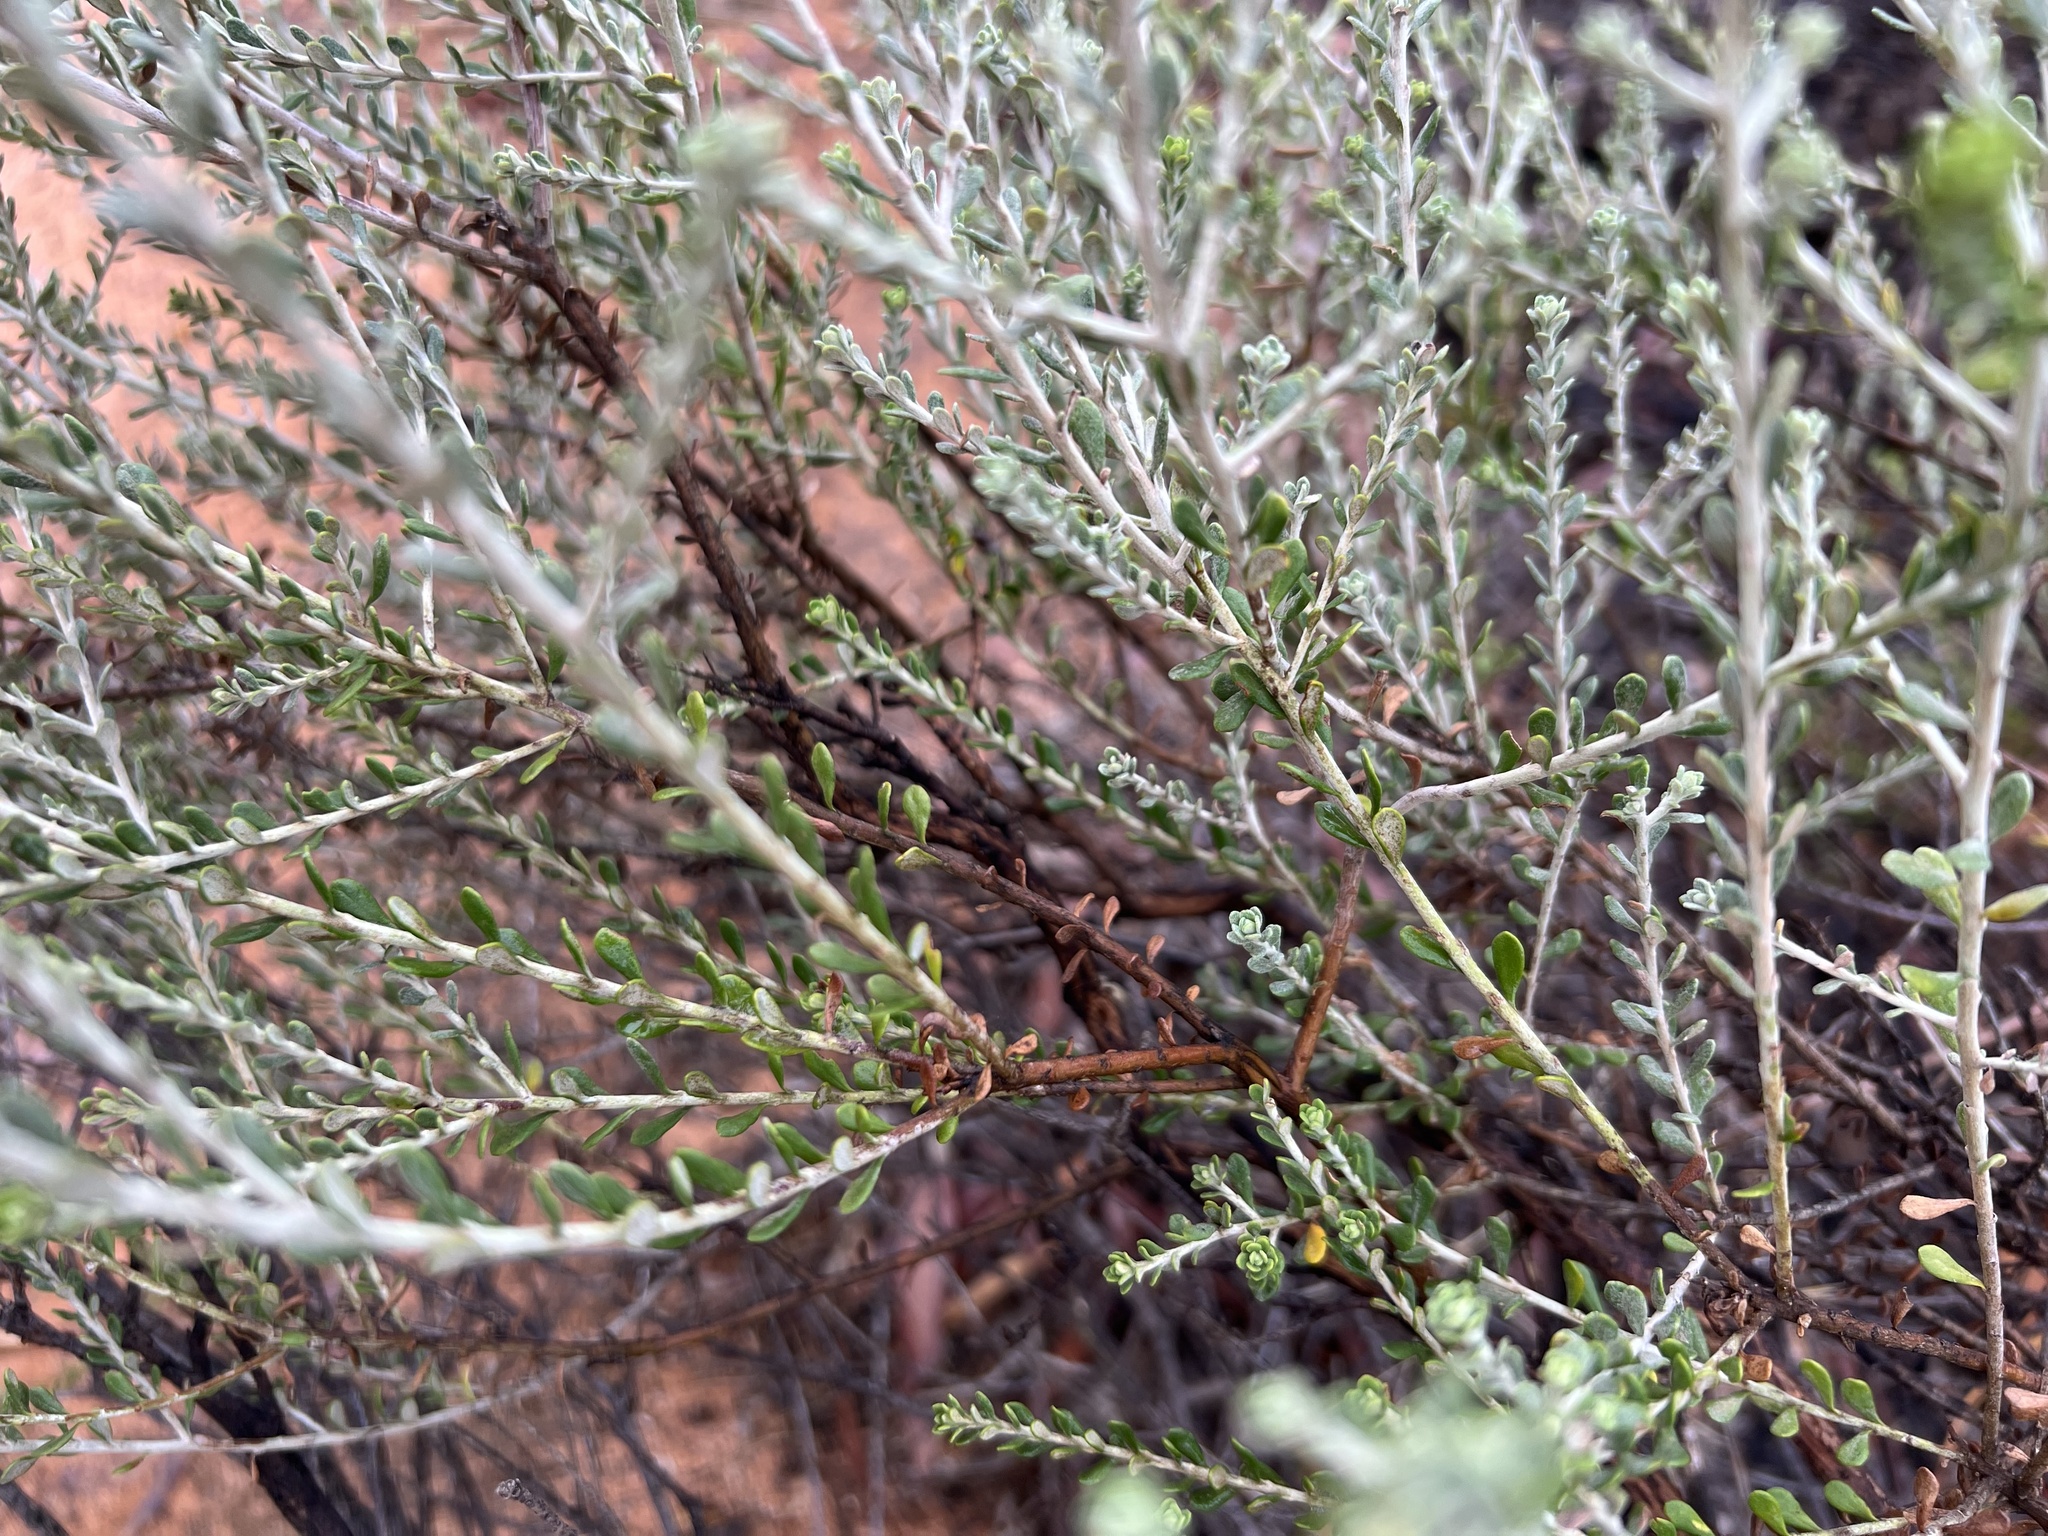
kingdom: Plantae
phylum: Tracheophyta
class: Magnoliopsida
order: Asterales
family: Asteraceae
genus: Olearia
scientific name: Olearia pimeleoides
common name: Showy daisybush
